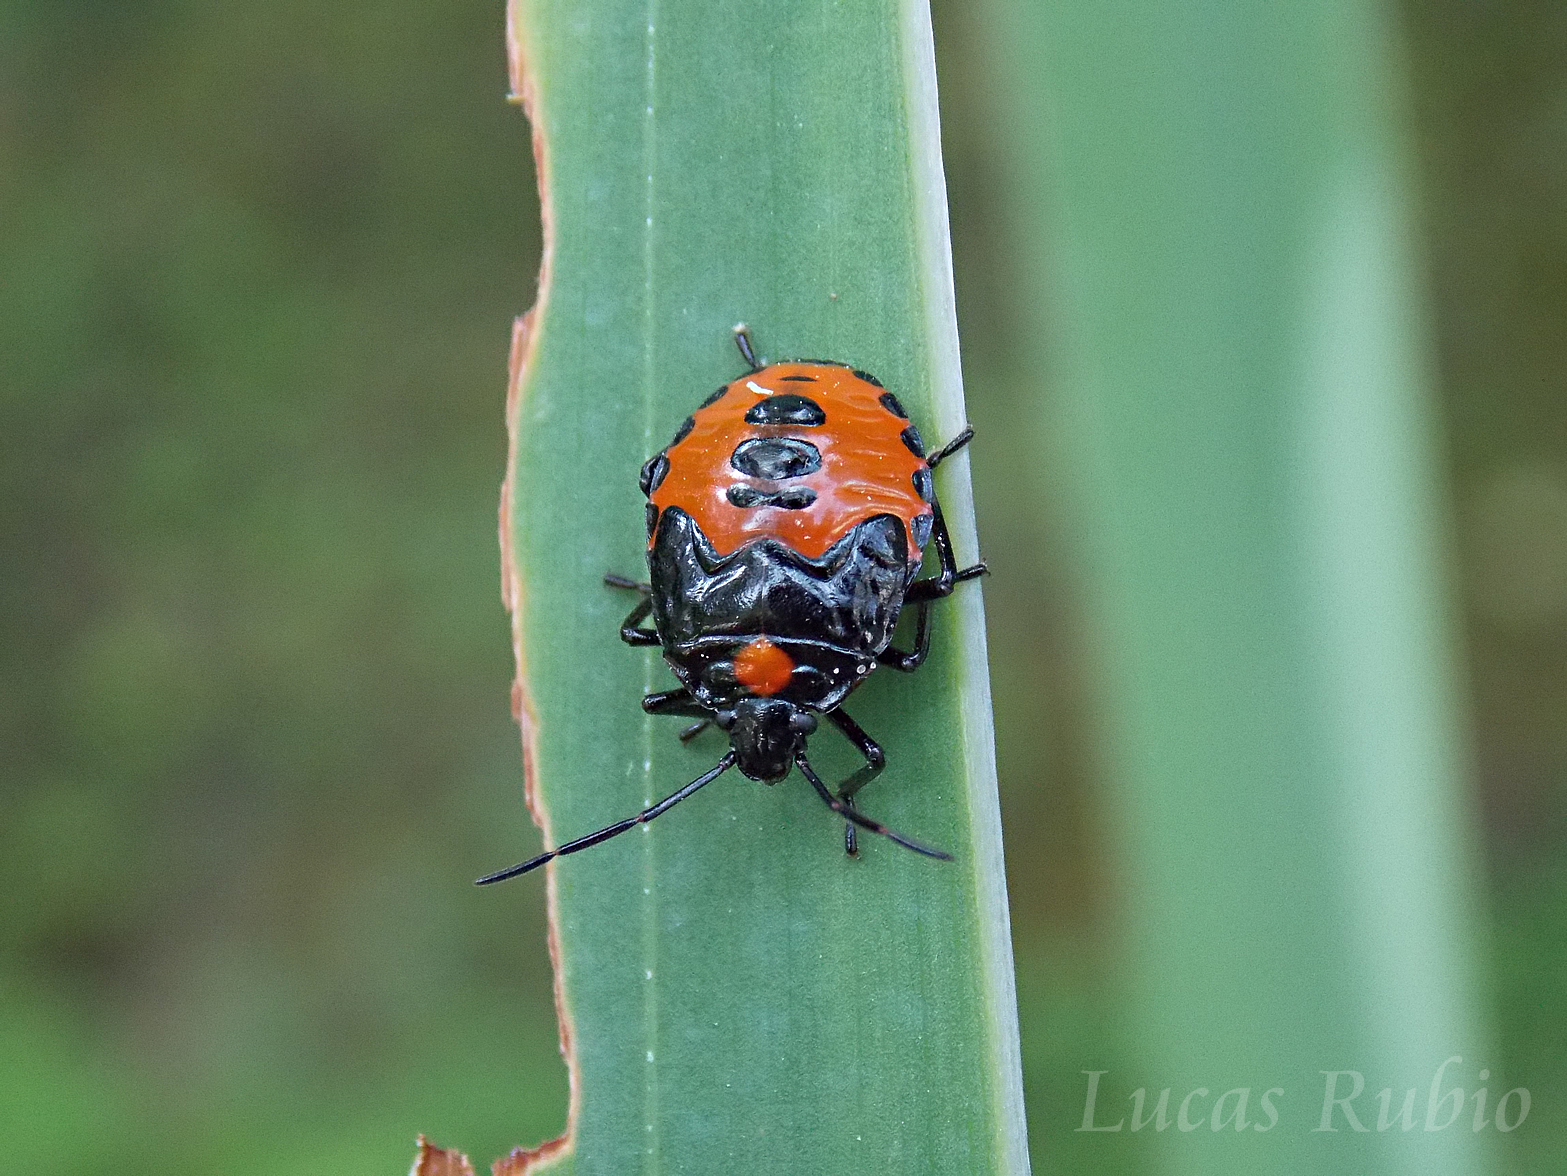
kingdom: Animalia
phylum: Arthropoda
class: Insecta
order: Hemiptera
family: Pentatomidae
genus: Arocera
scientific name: Arocera
